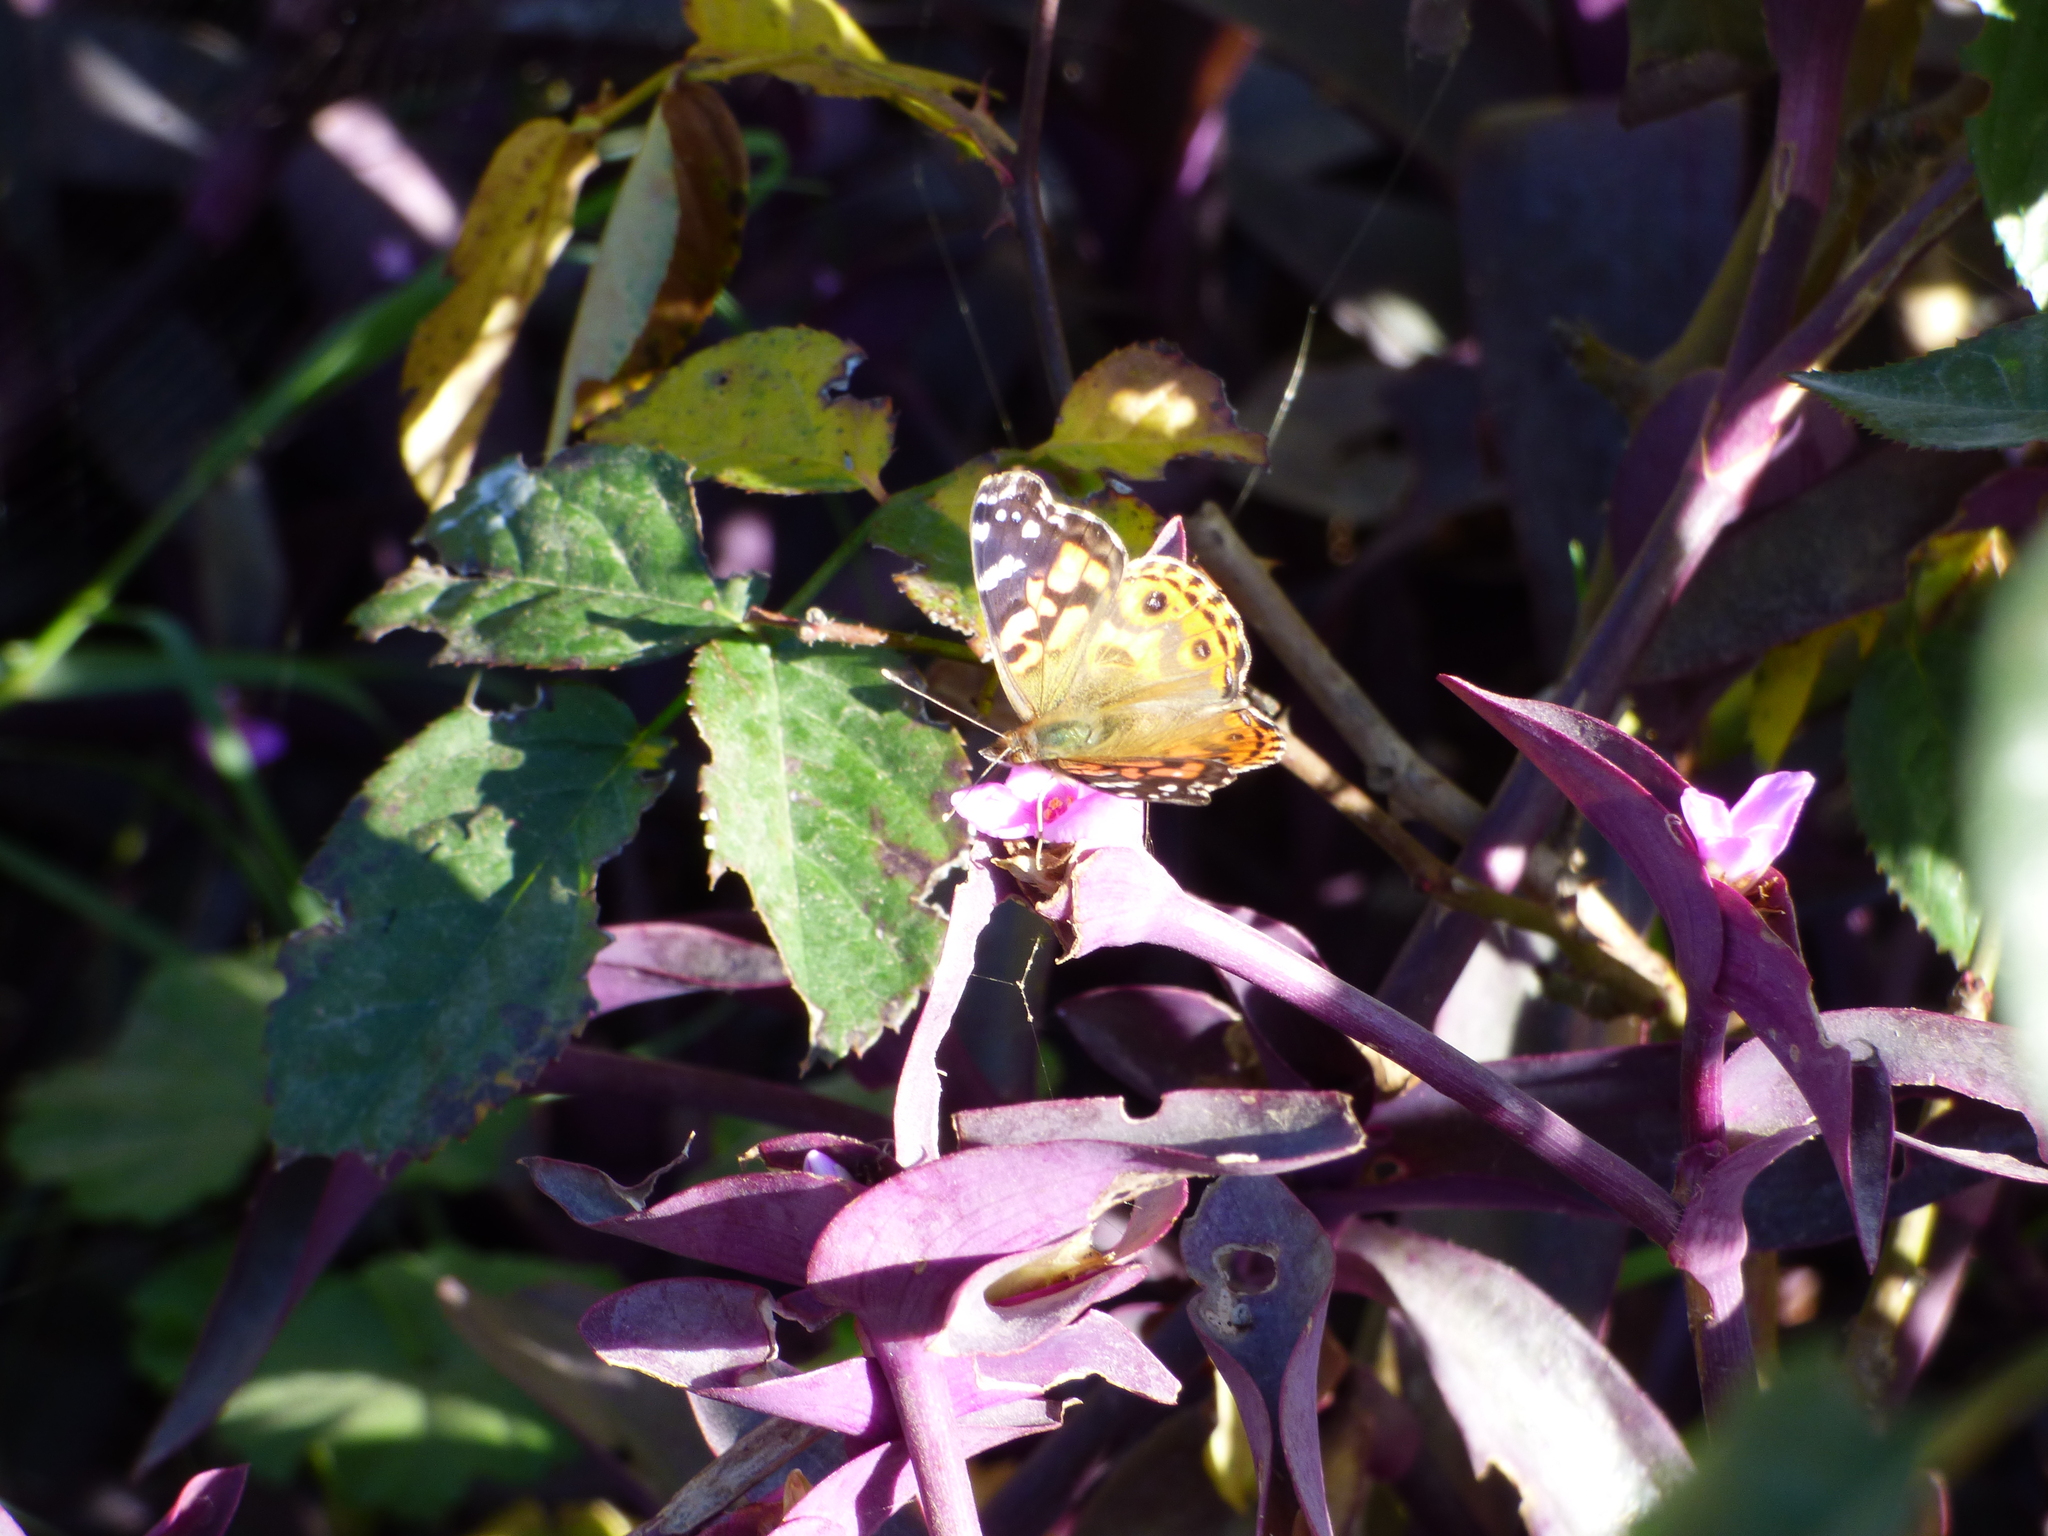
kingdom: Animalia
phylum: Arthropoda
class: Insecta
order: Lepidoptera
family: Nymphalidae
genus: Vanessa
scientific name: Vanessa braziliensis
